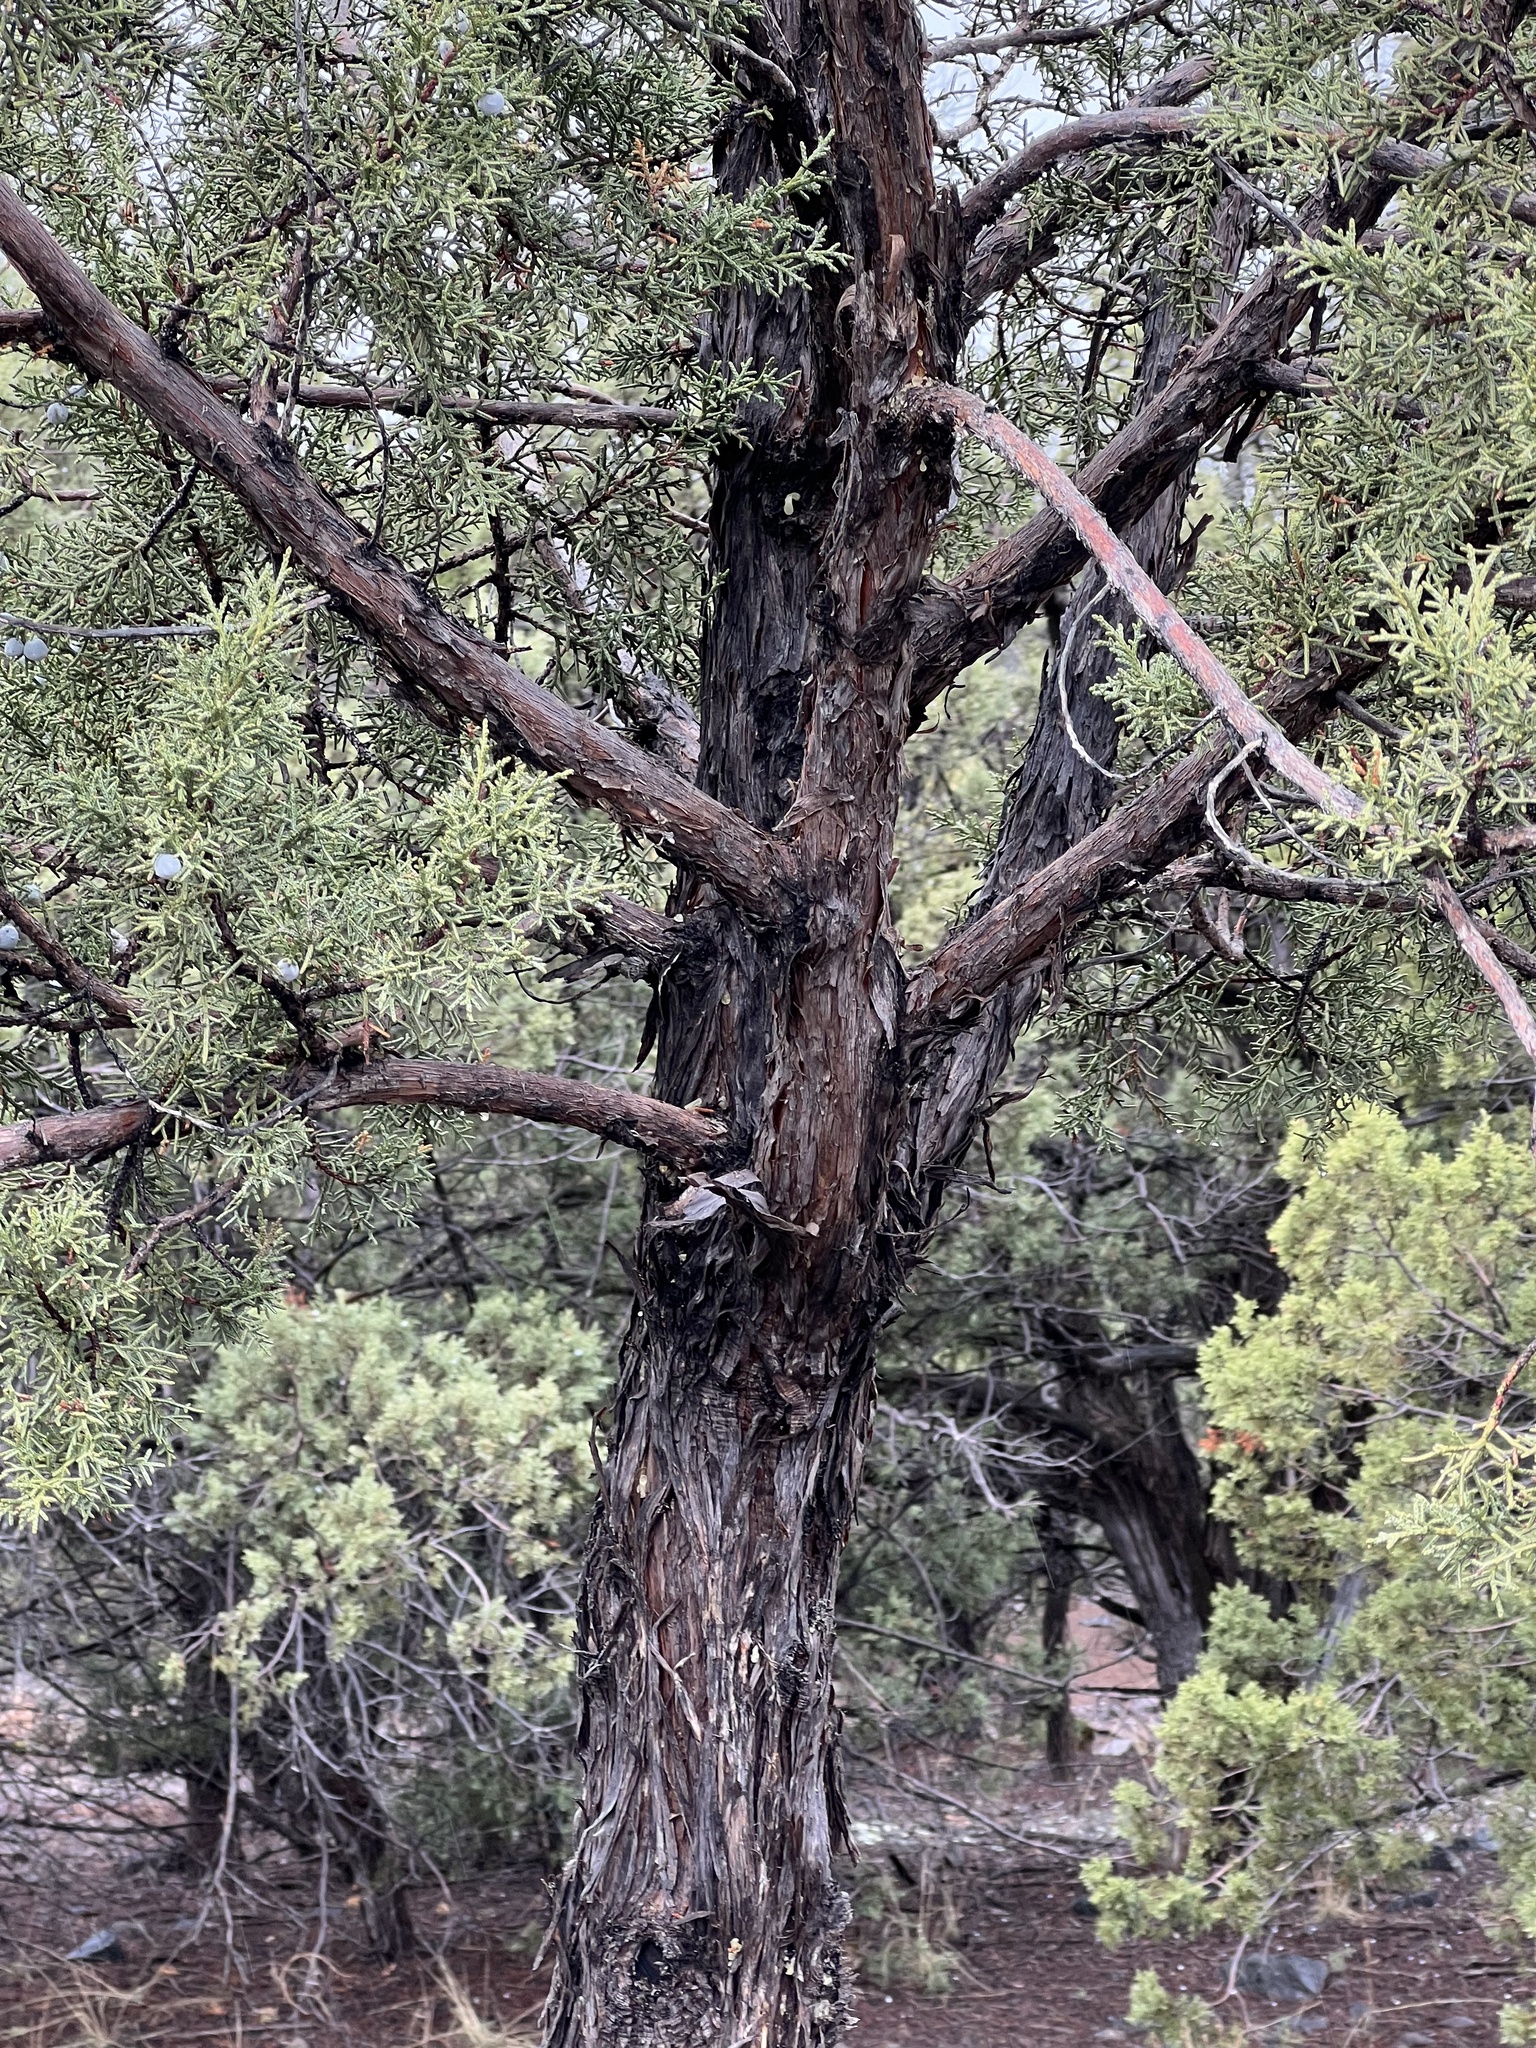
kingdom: Plantae
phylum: Tracheophyta
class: Pinopsida
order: Pinales
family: Cupressaceae
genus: Juniperus
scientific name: Juniperus osteosperma
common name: Utah juniper
